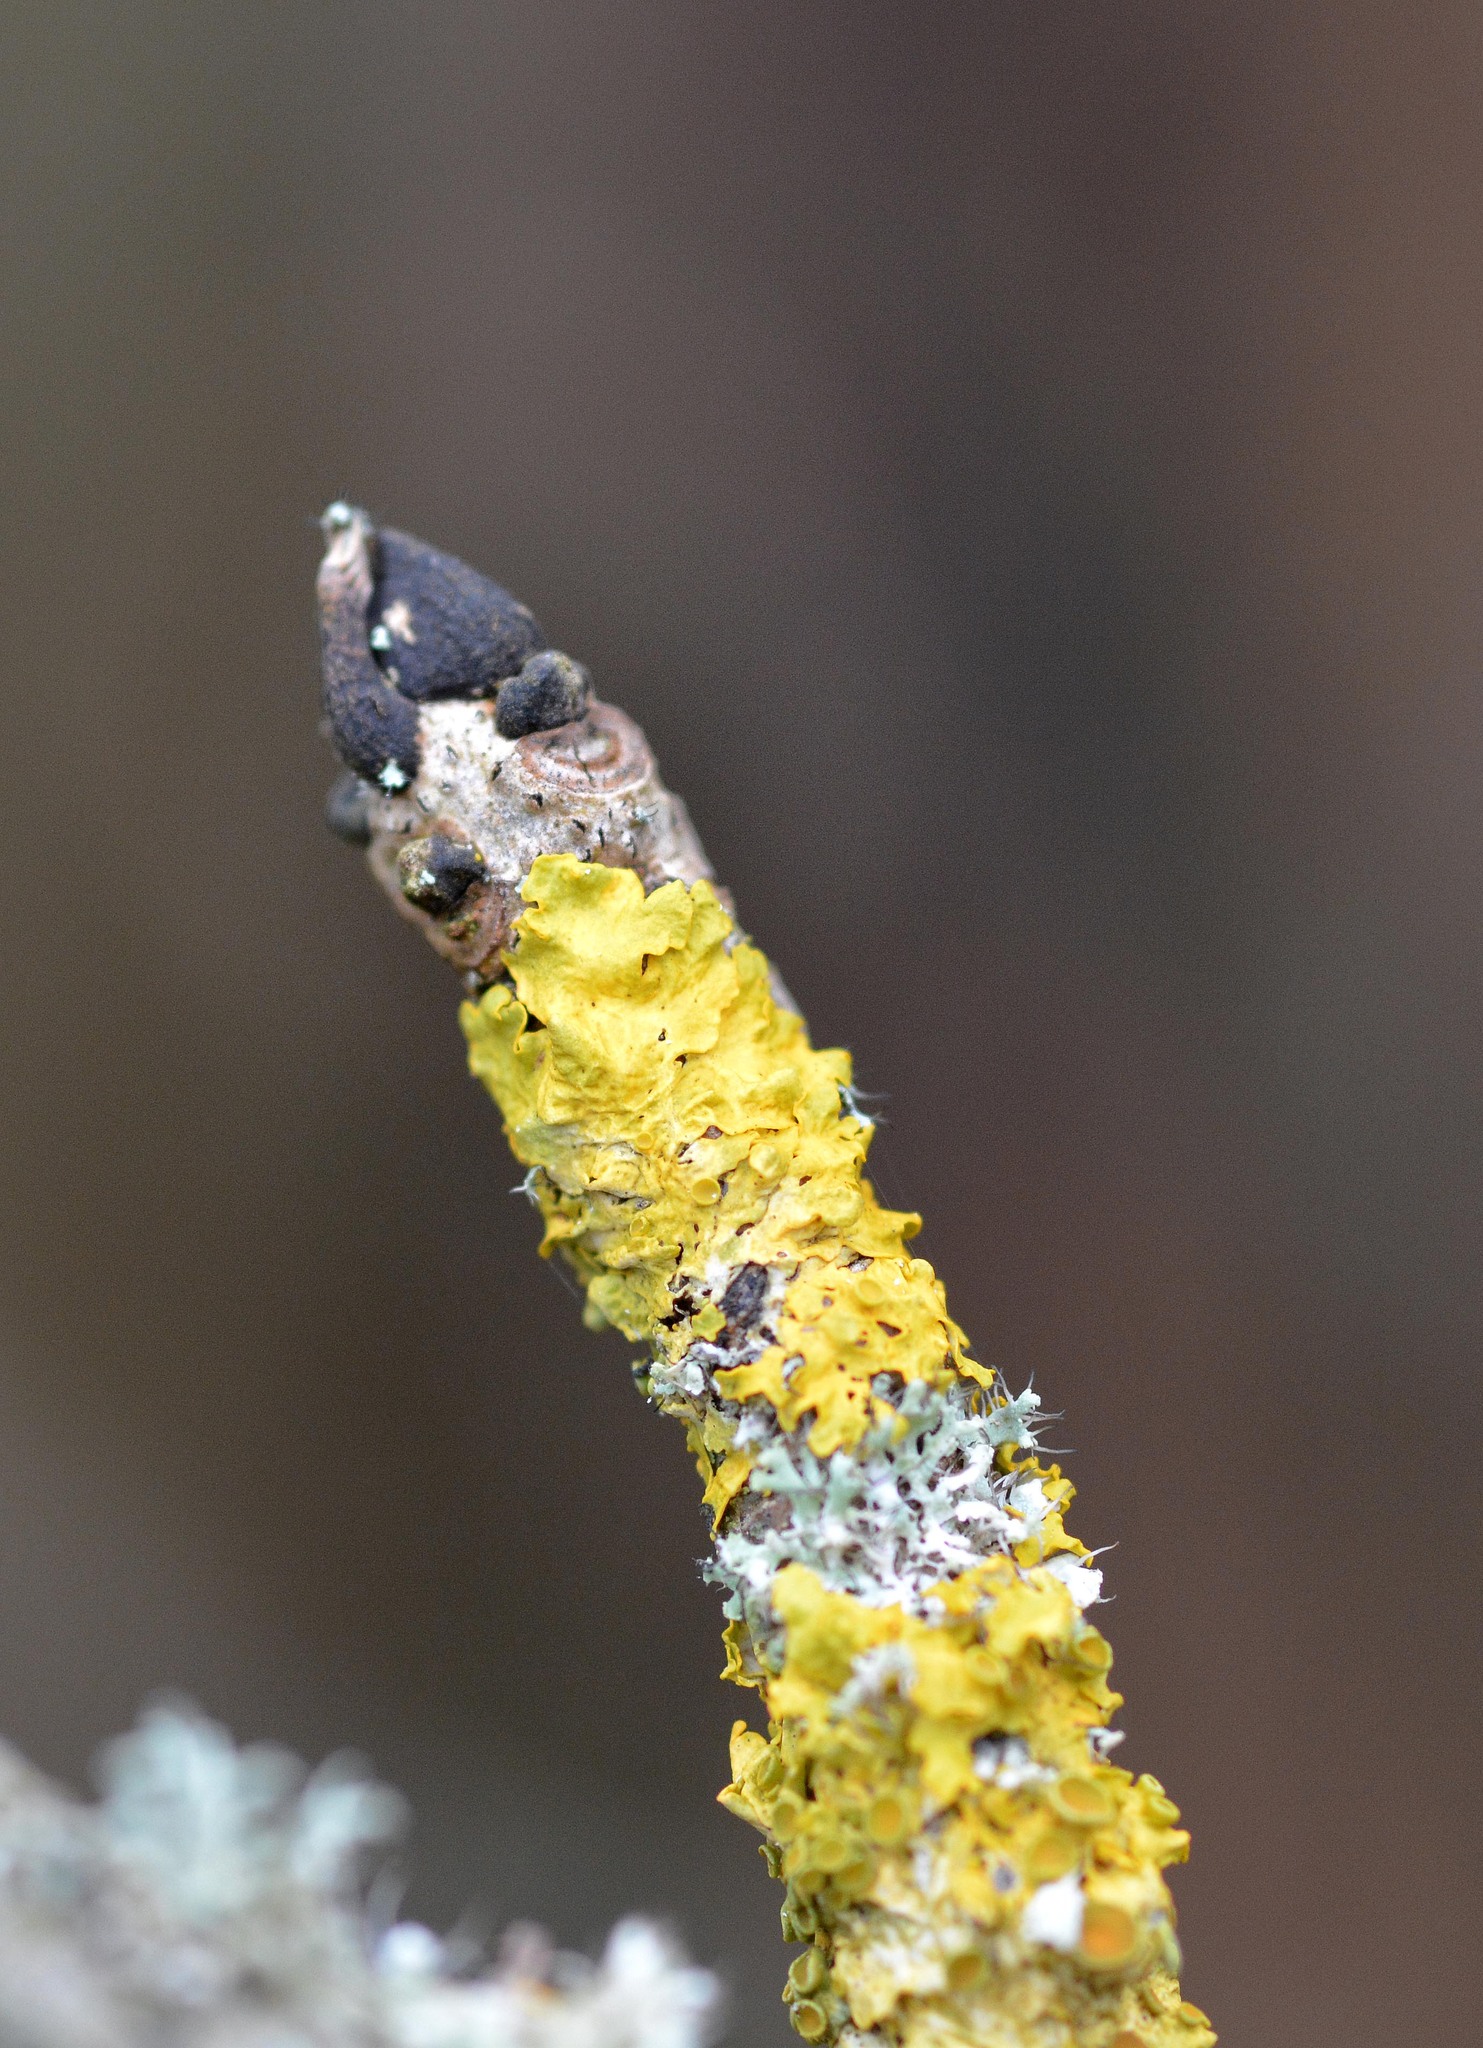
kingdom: Fungi
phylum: Ascomycota
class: Lecanoromycetes
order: Teloschistales
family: Teloschistaceae
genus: Xanthoria
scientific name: Xanthoria parietina
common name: Common orange lichen
